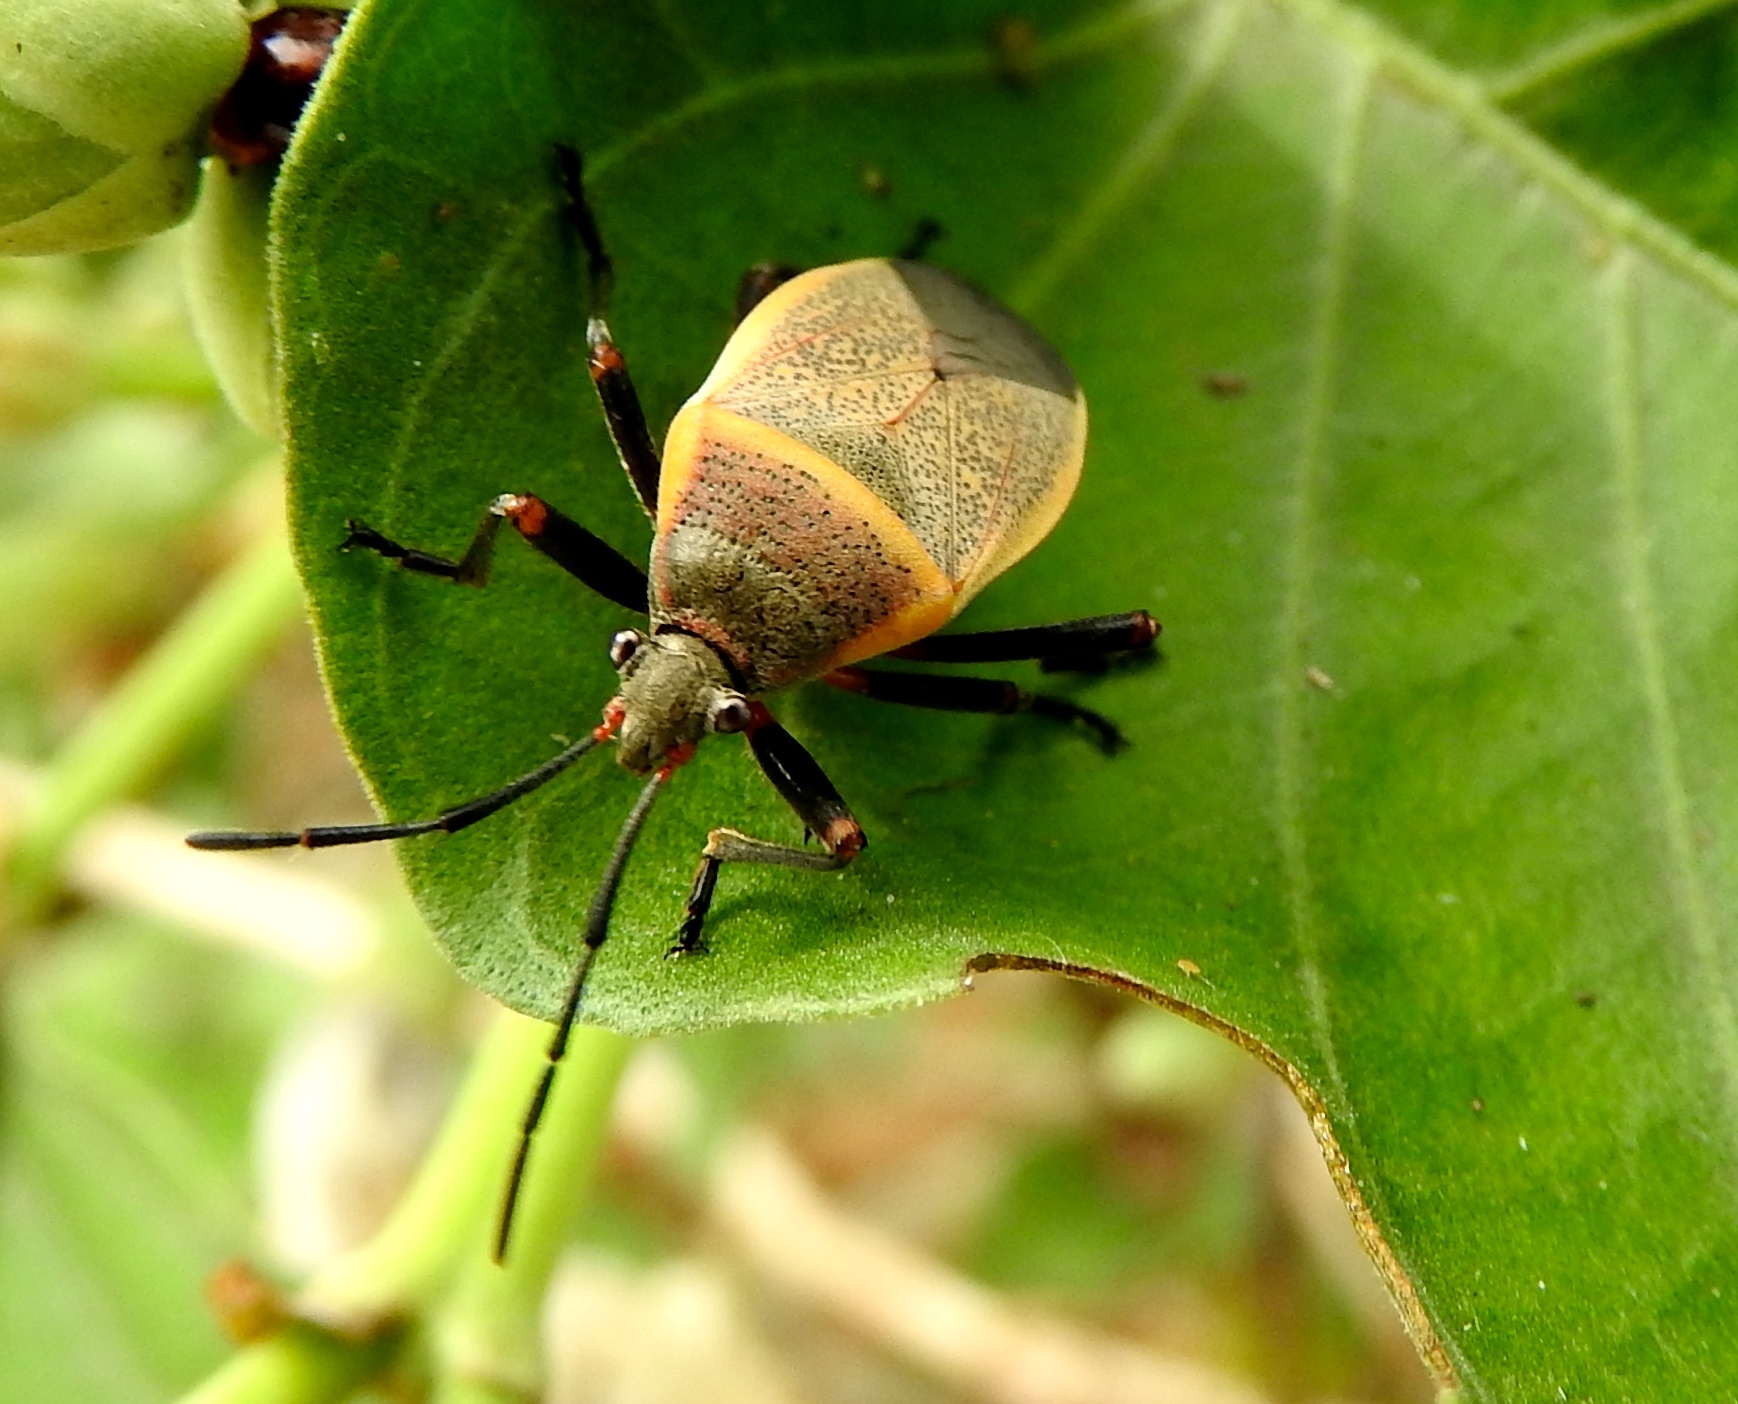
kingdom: Animalia
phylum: Arthropoda
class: Insecta
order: Hemiptera
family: Largidae
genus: Largus
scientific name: Largus
